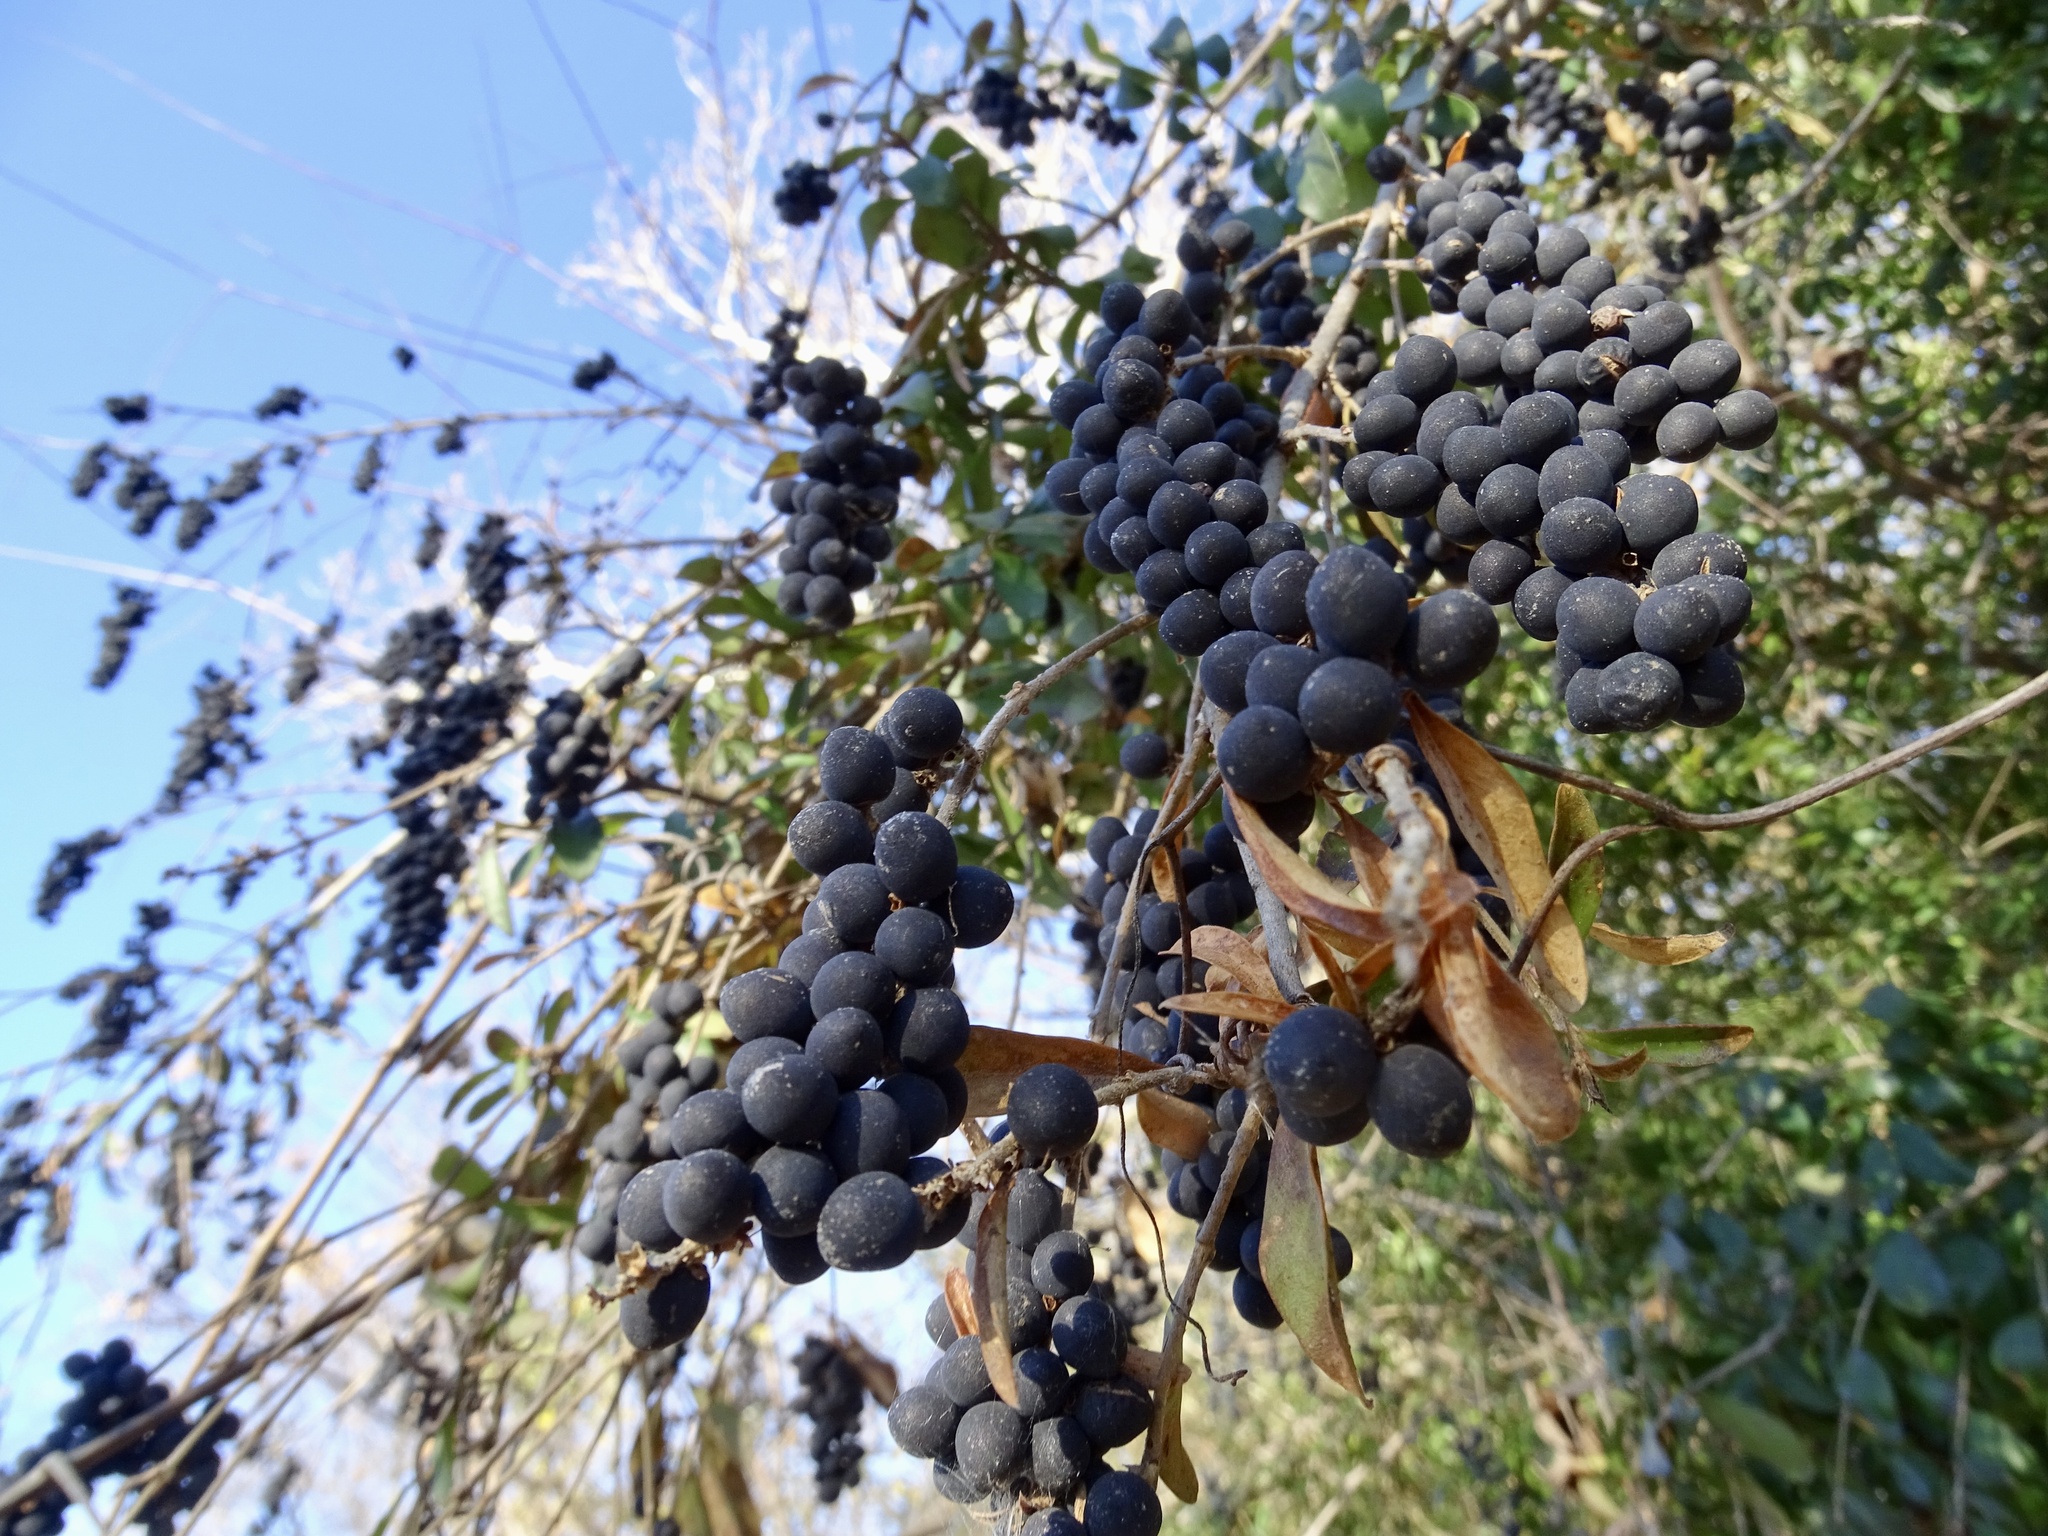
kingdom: Plantae
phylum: Tracheophyta
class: Magnoliopsida
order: Lamiales
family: Oleaceae
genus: Ligustrum
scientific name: Ligustrum quihoui
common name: Waxyleaf privet
